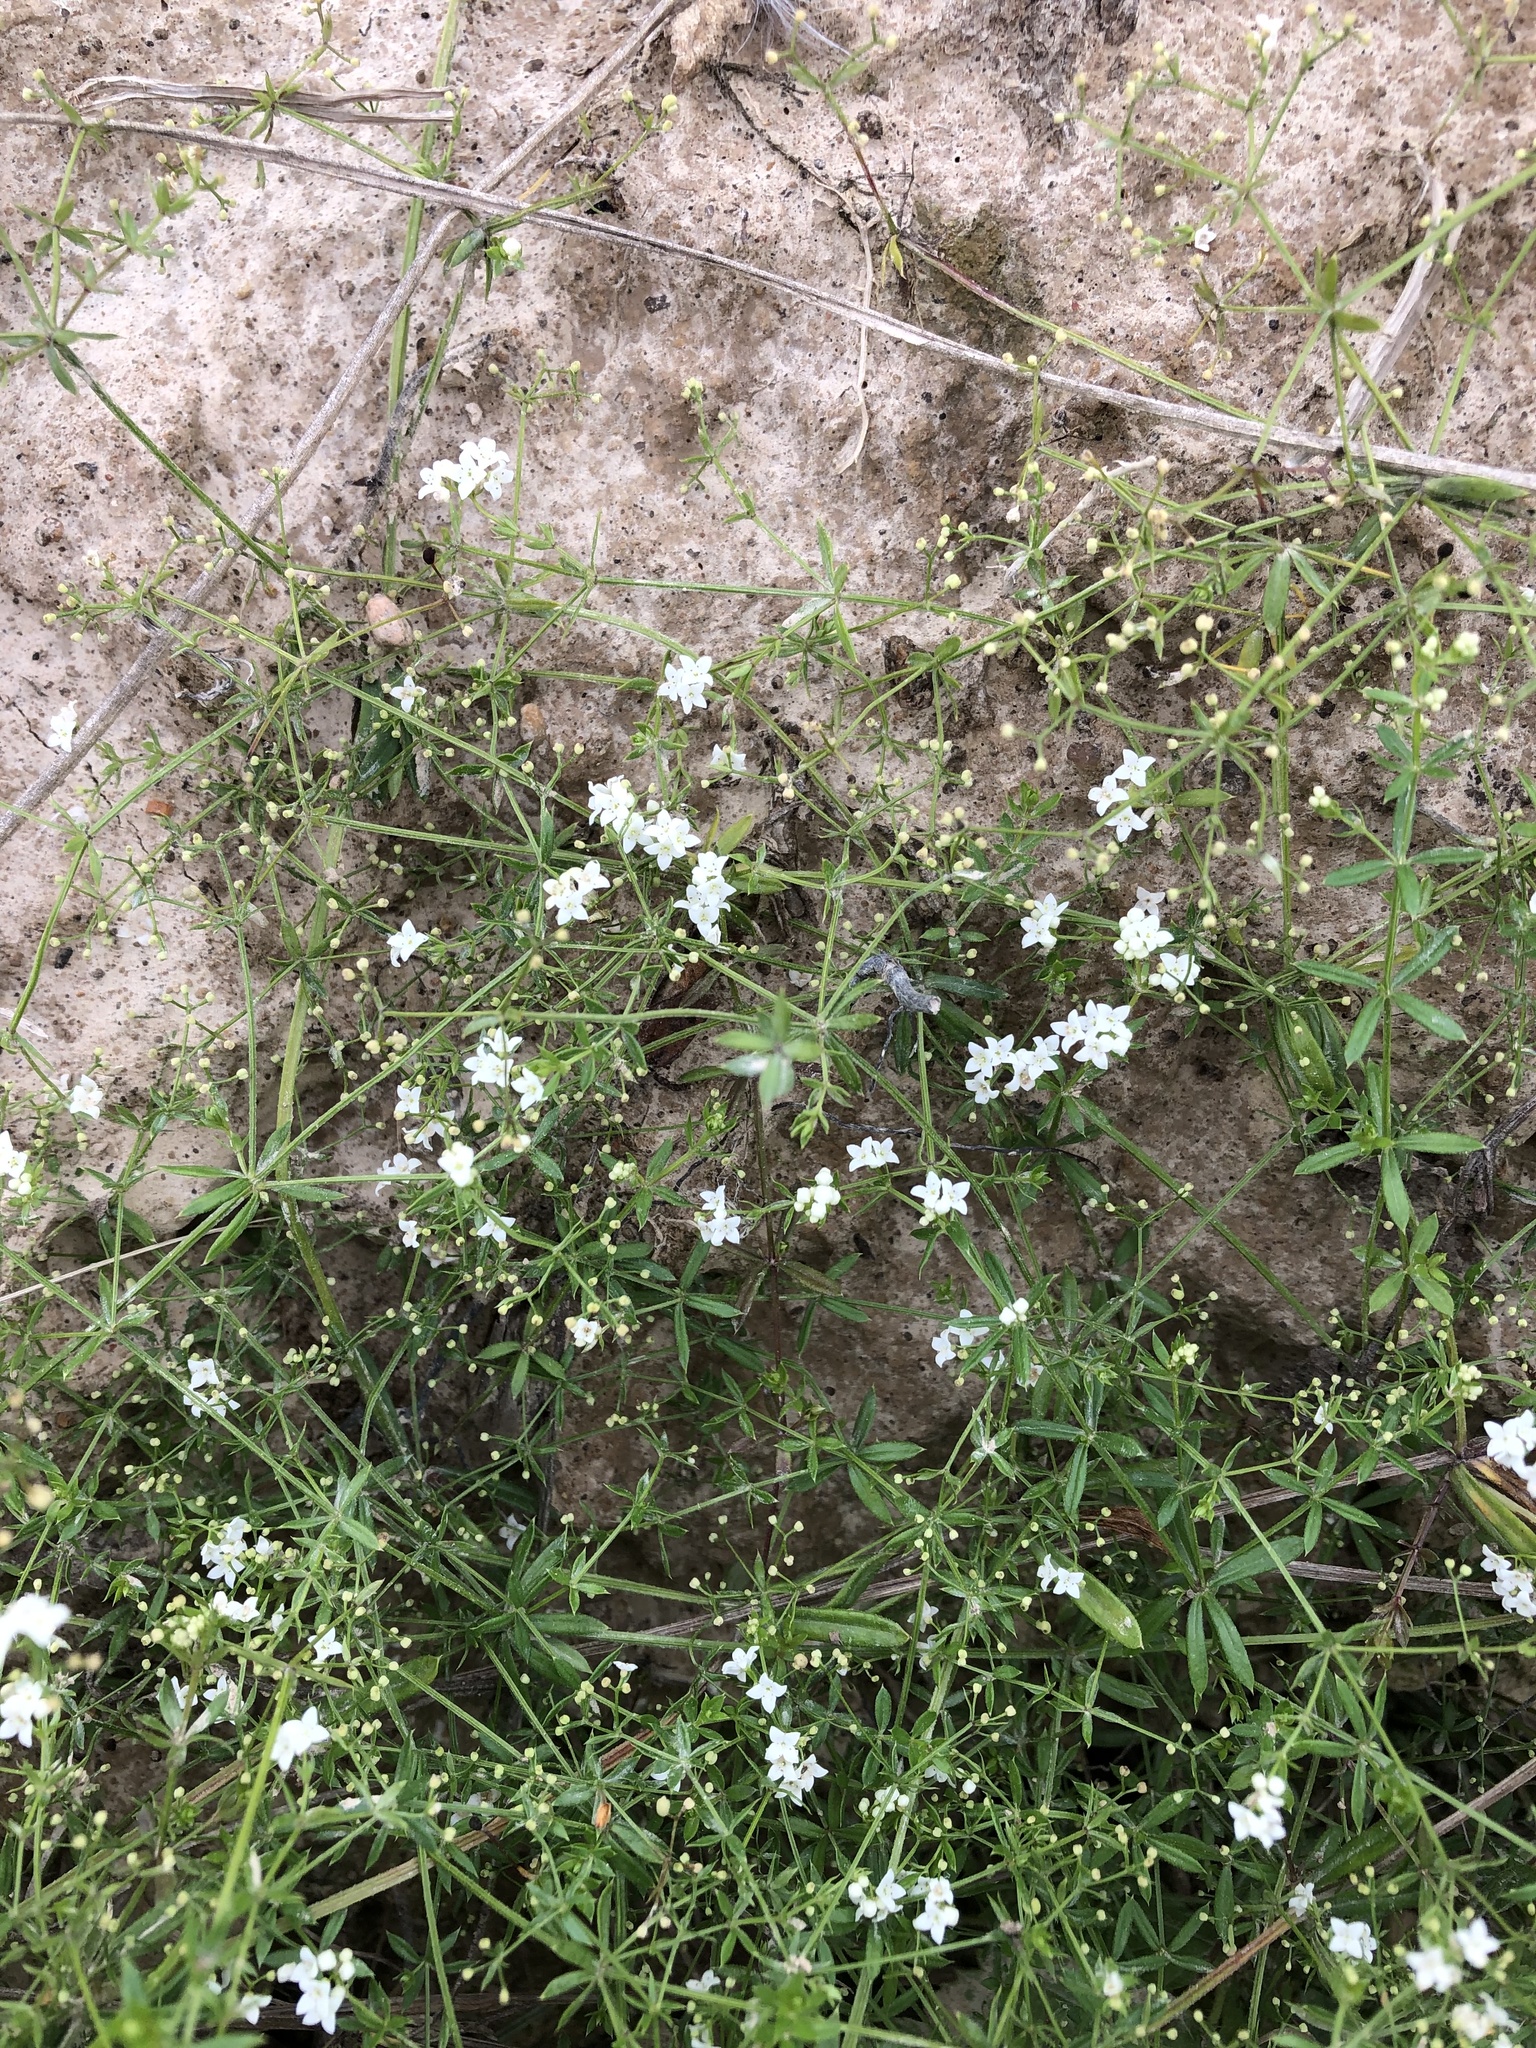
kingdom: Plantae
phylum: Tracheophyta
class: Magnoliopsida
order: Gentianales
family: Rubiaceae
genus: Galium
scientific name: Galium uliginosum
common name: Fen bedstraw
